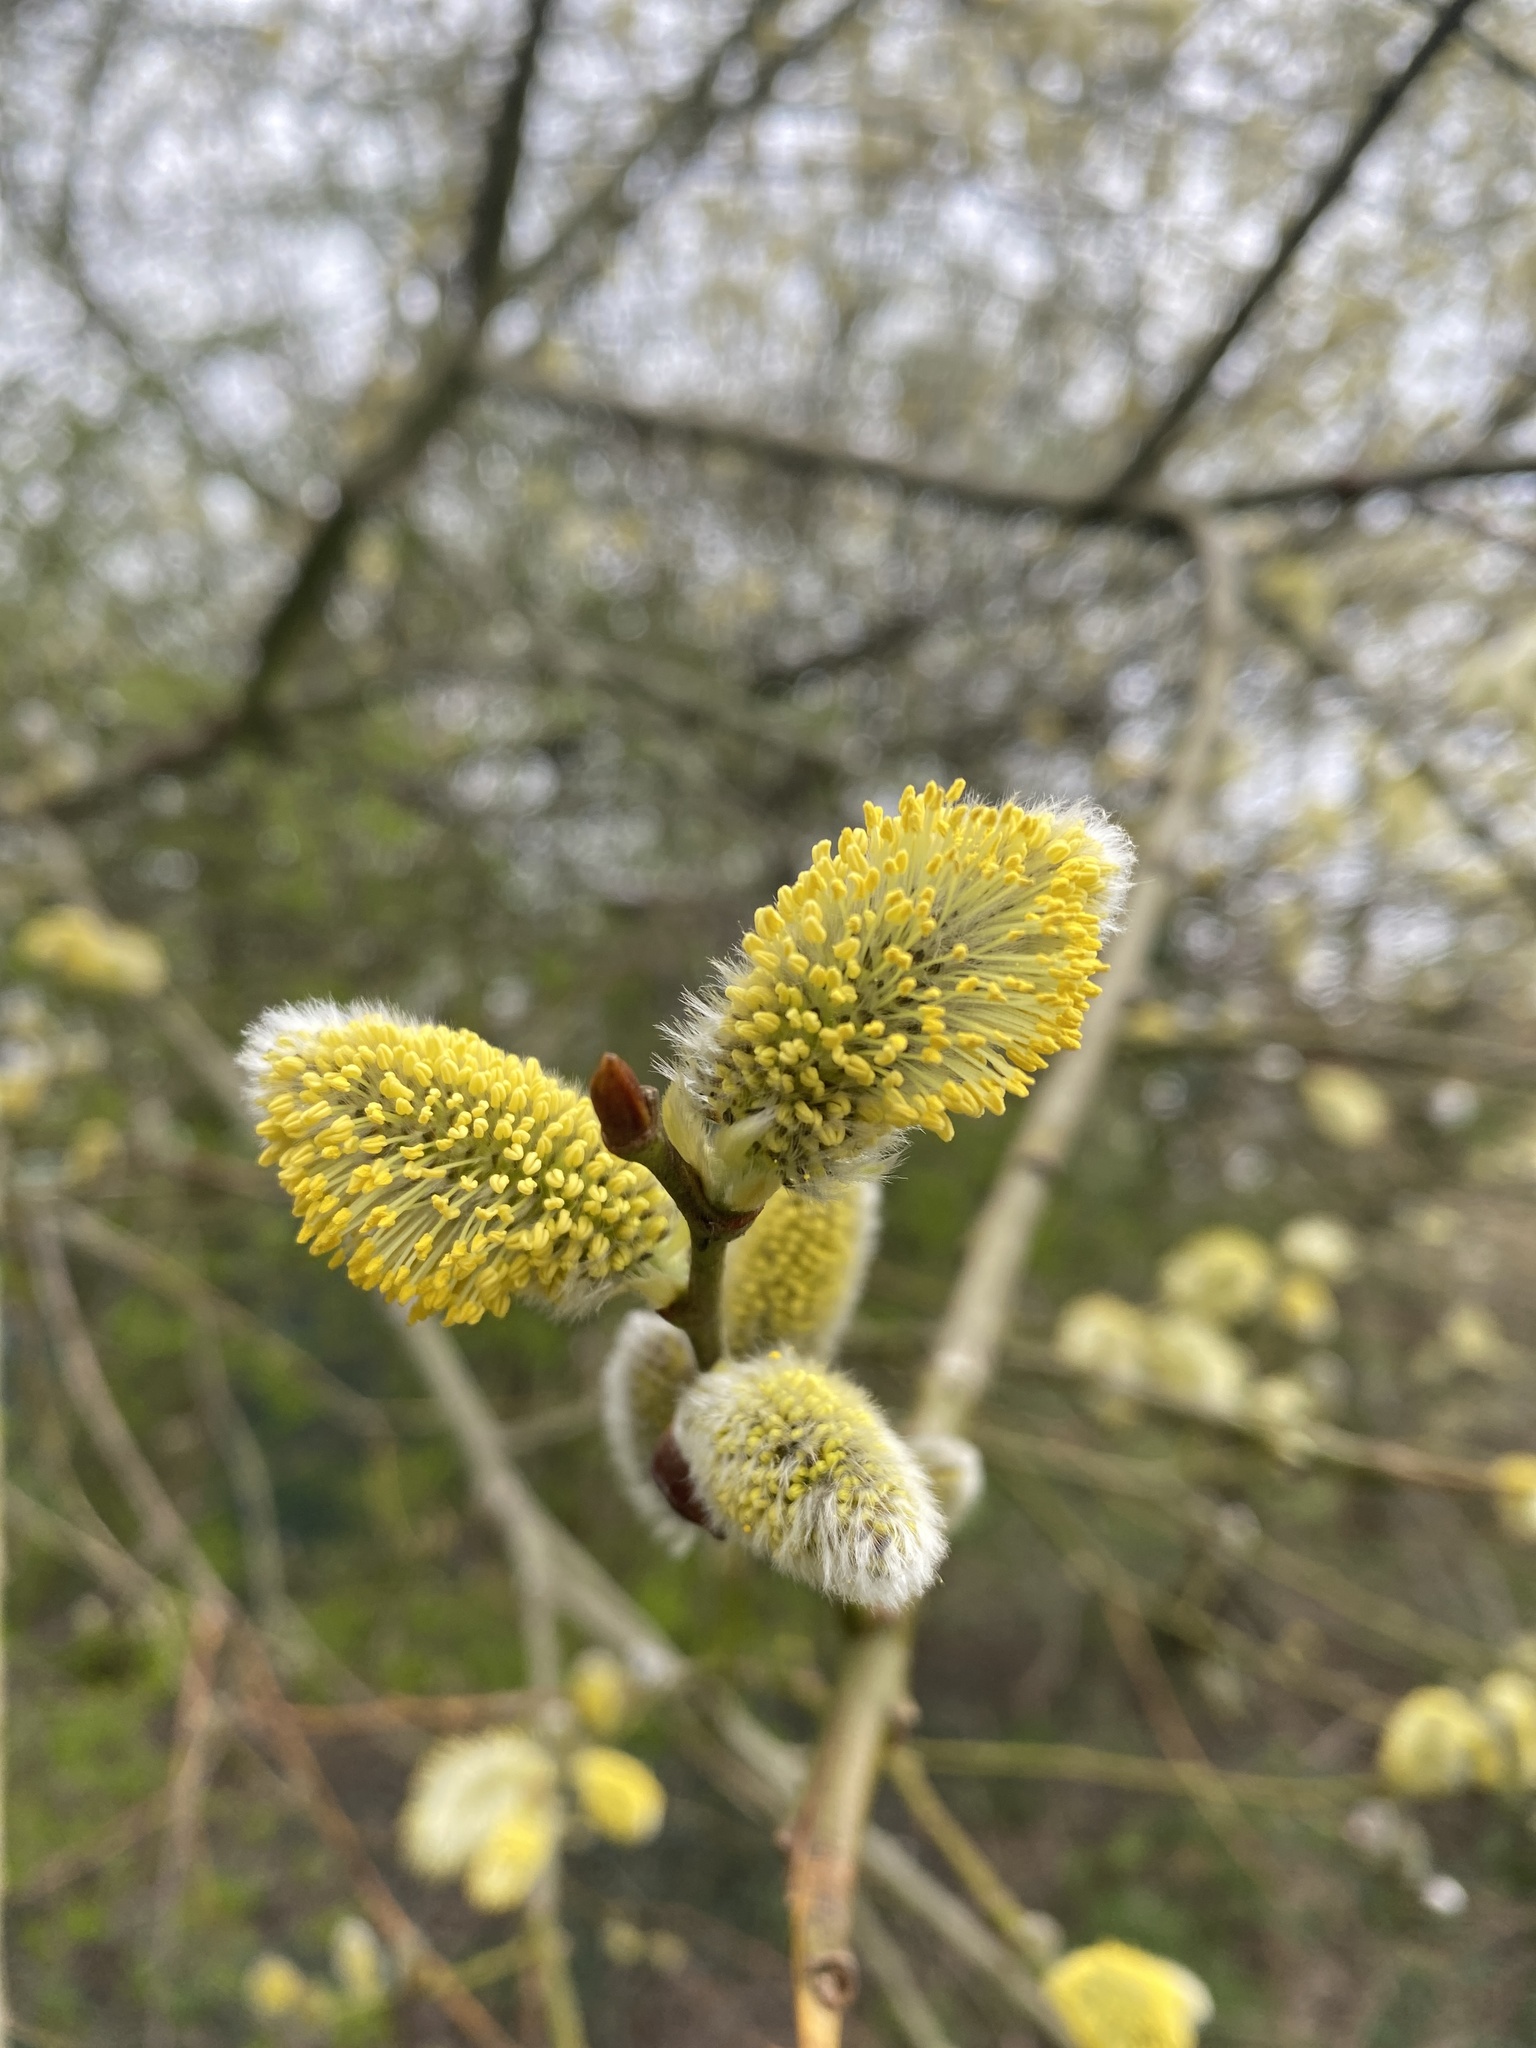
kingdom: Plantae
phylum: Tracheophyta
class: Magnoliopsida
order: Malpighiales
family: Salicaceae
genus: Salix
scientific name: Salix caprea
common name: Goat willow
